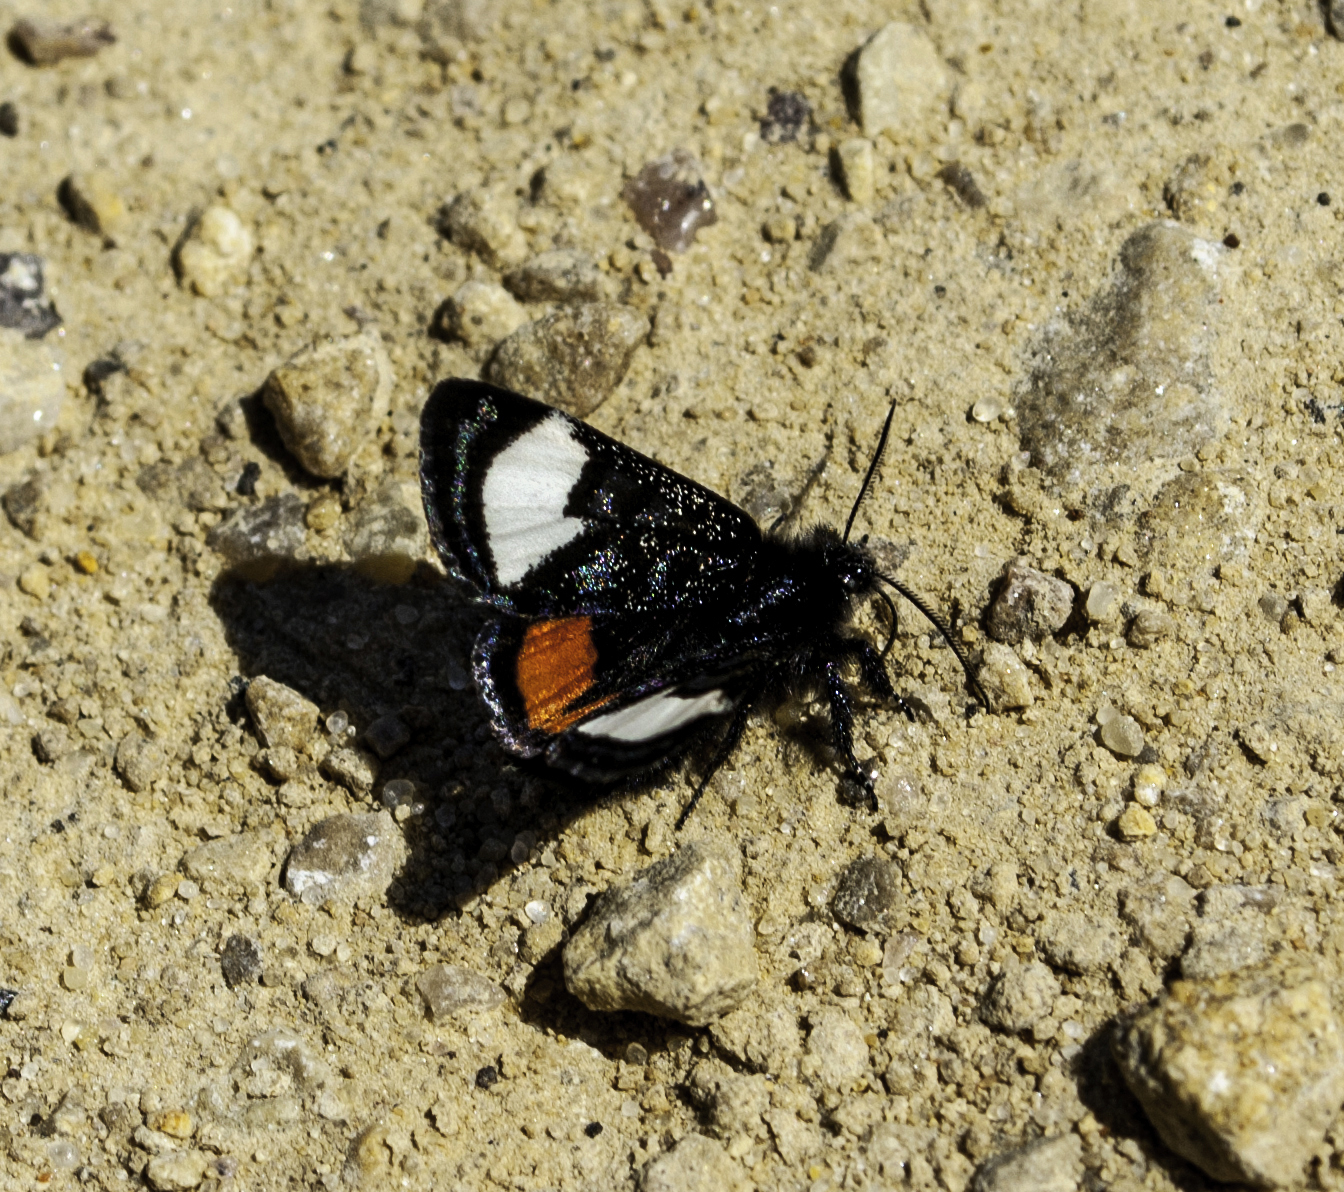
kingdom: Animalia
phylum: Arthropoda
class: Insecta
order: Lepidoptera
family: Noctuidae
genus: Psychomorpha
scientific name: Psychomorpha epimenis
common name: Grapevine epimenis moth
